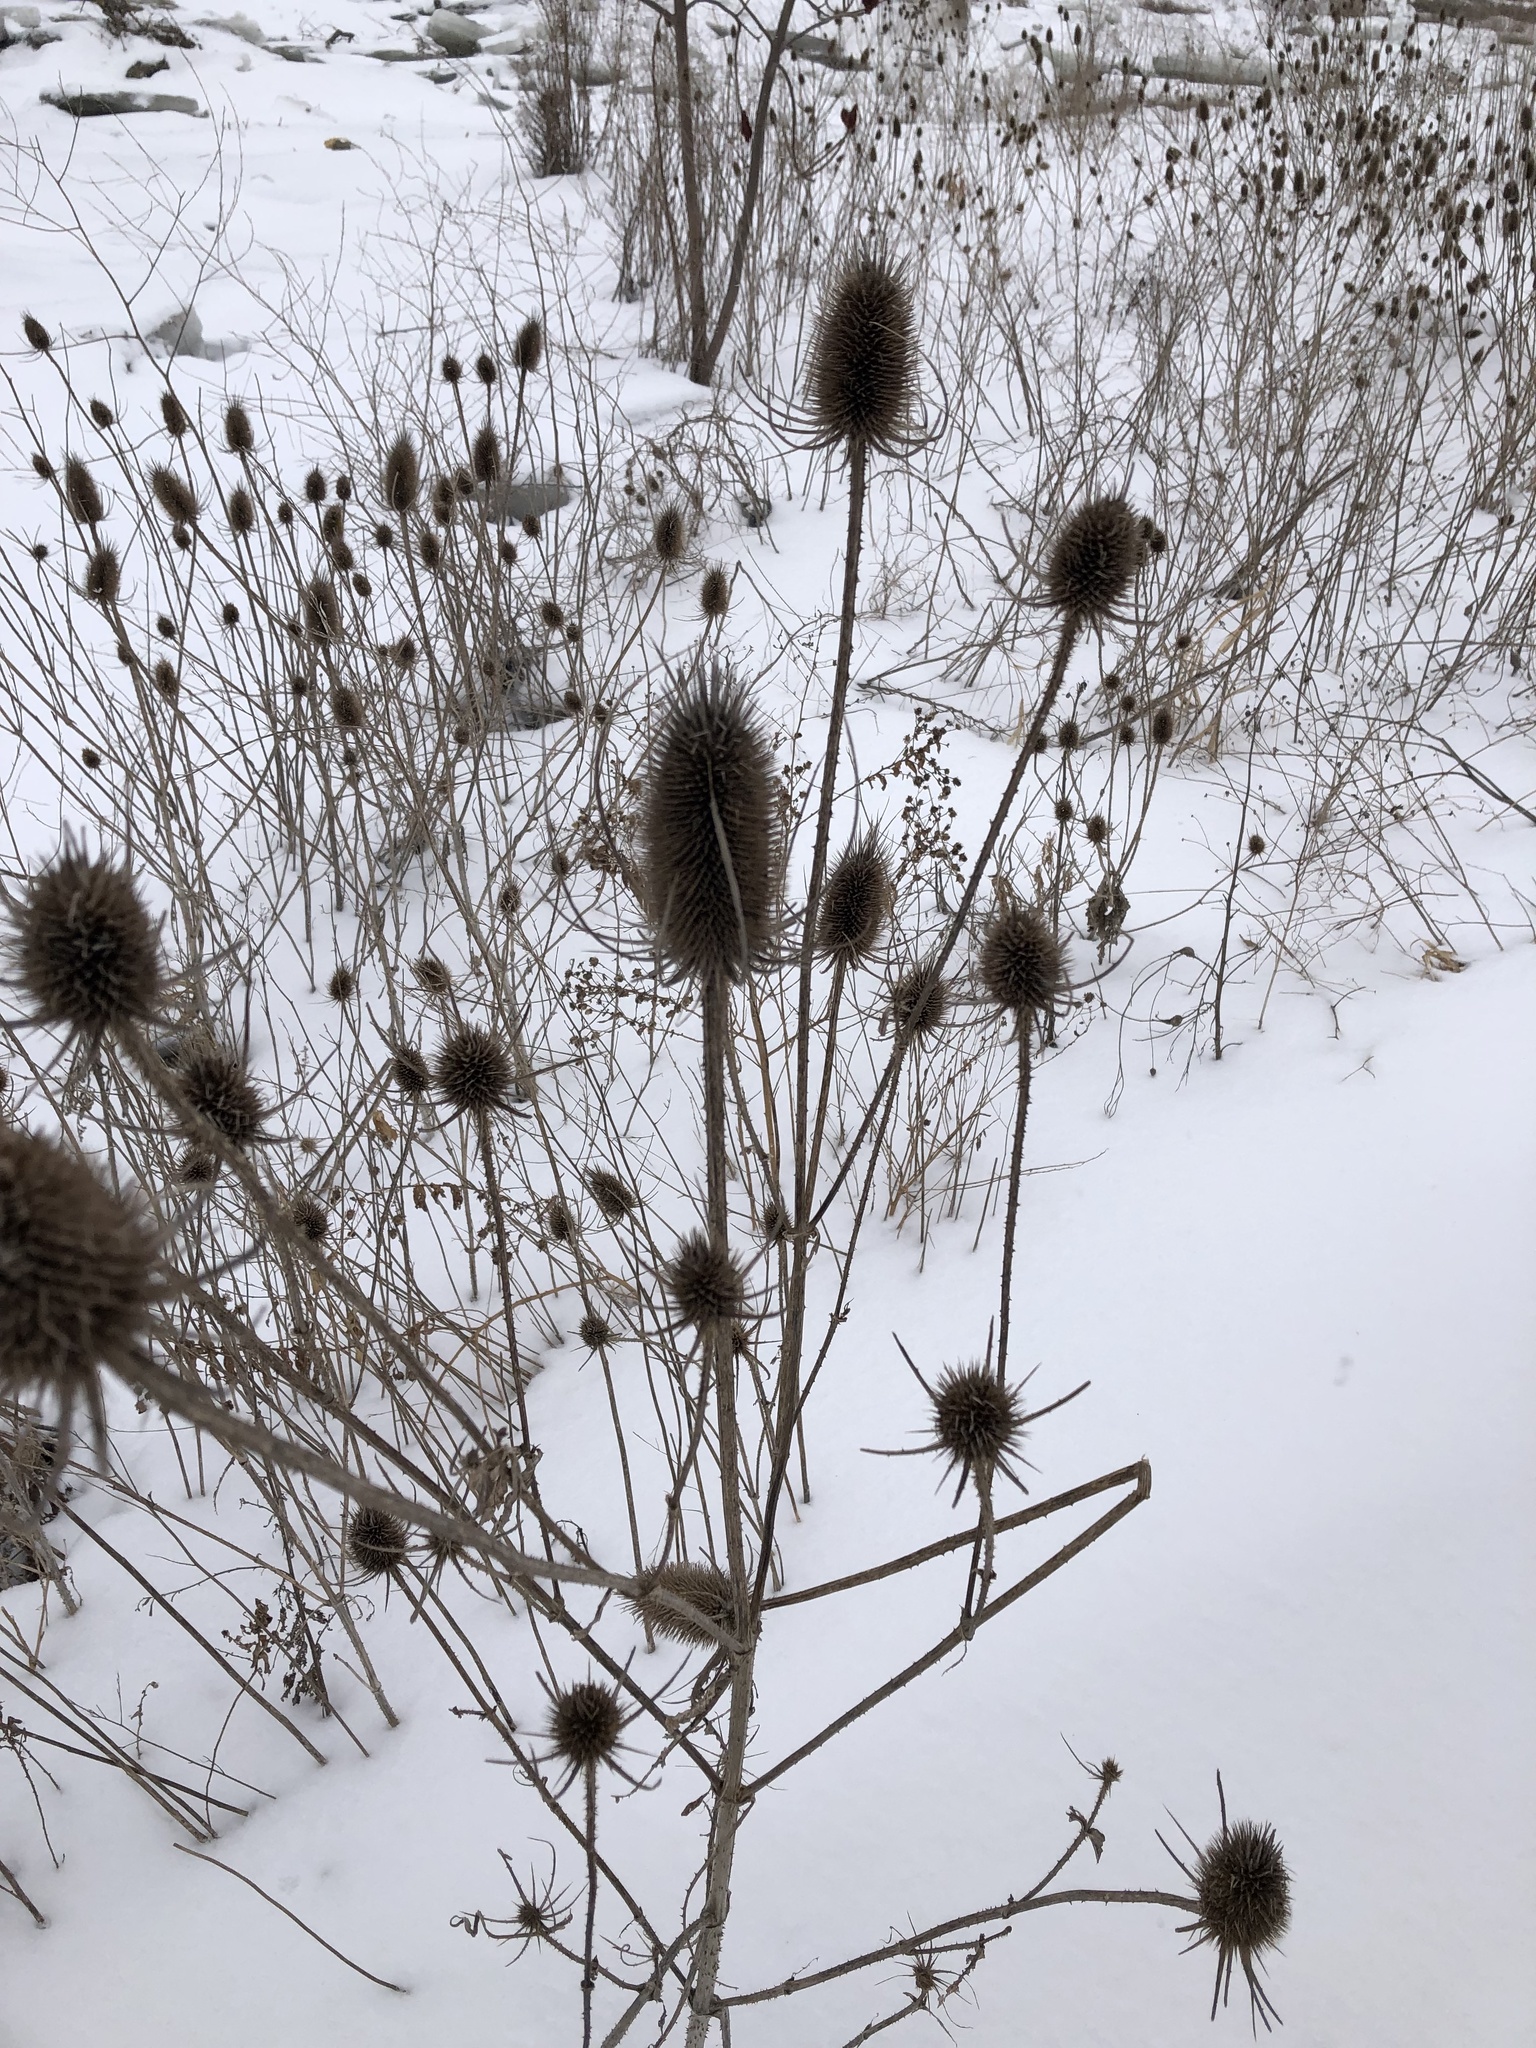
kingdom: Plantae
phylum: Tracheophyta
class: Magnoliopsida
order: Dipsacales
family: Caprifoliaceae
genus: Dipsacus
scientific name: Dipsacus fullonum
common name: Teasel
